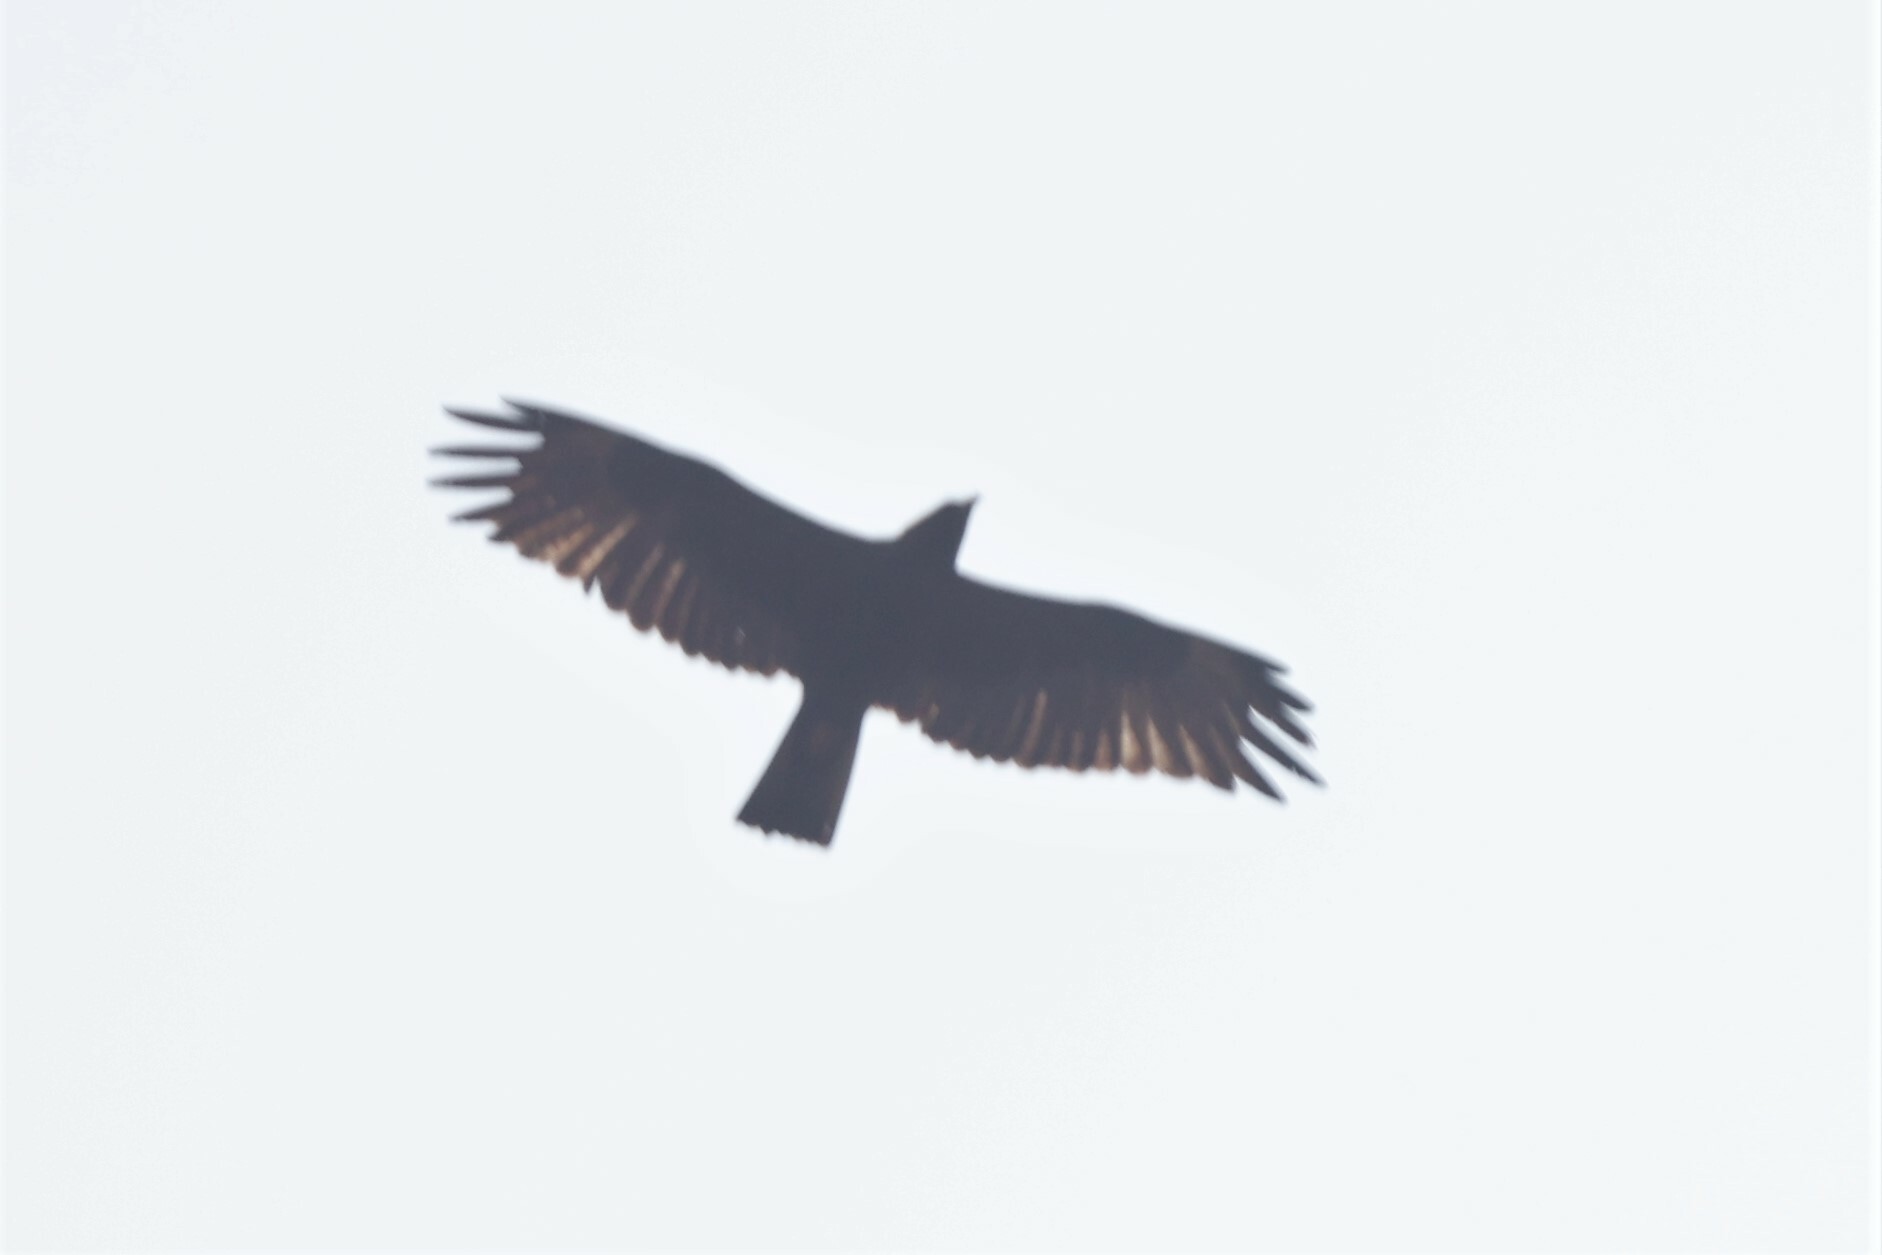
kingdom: Animalia
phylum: Chordata
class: Aves
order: Accipitriformes
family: Accipitridae
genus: Hieraaetus
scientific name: Hieraaetus wahlbergi
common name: Wahlberg's eagle
